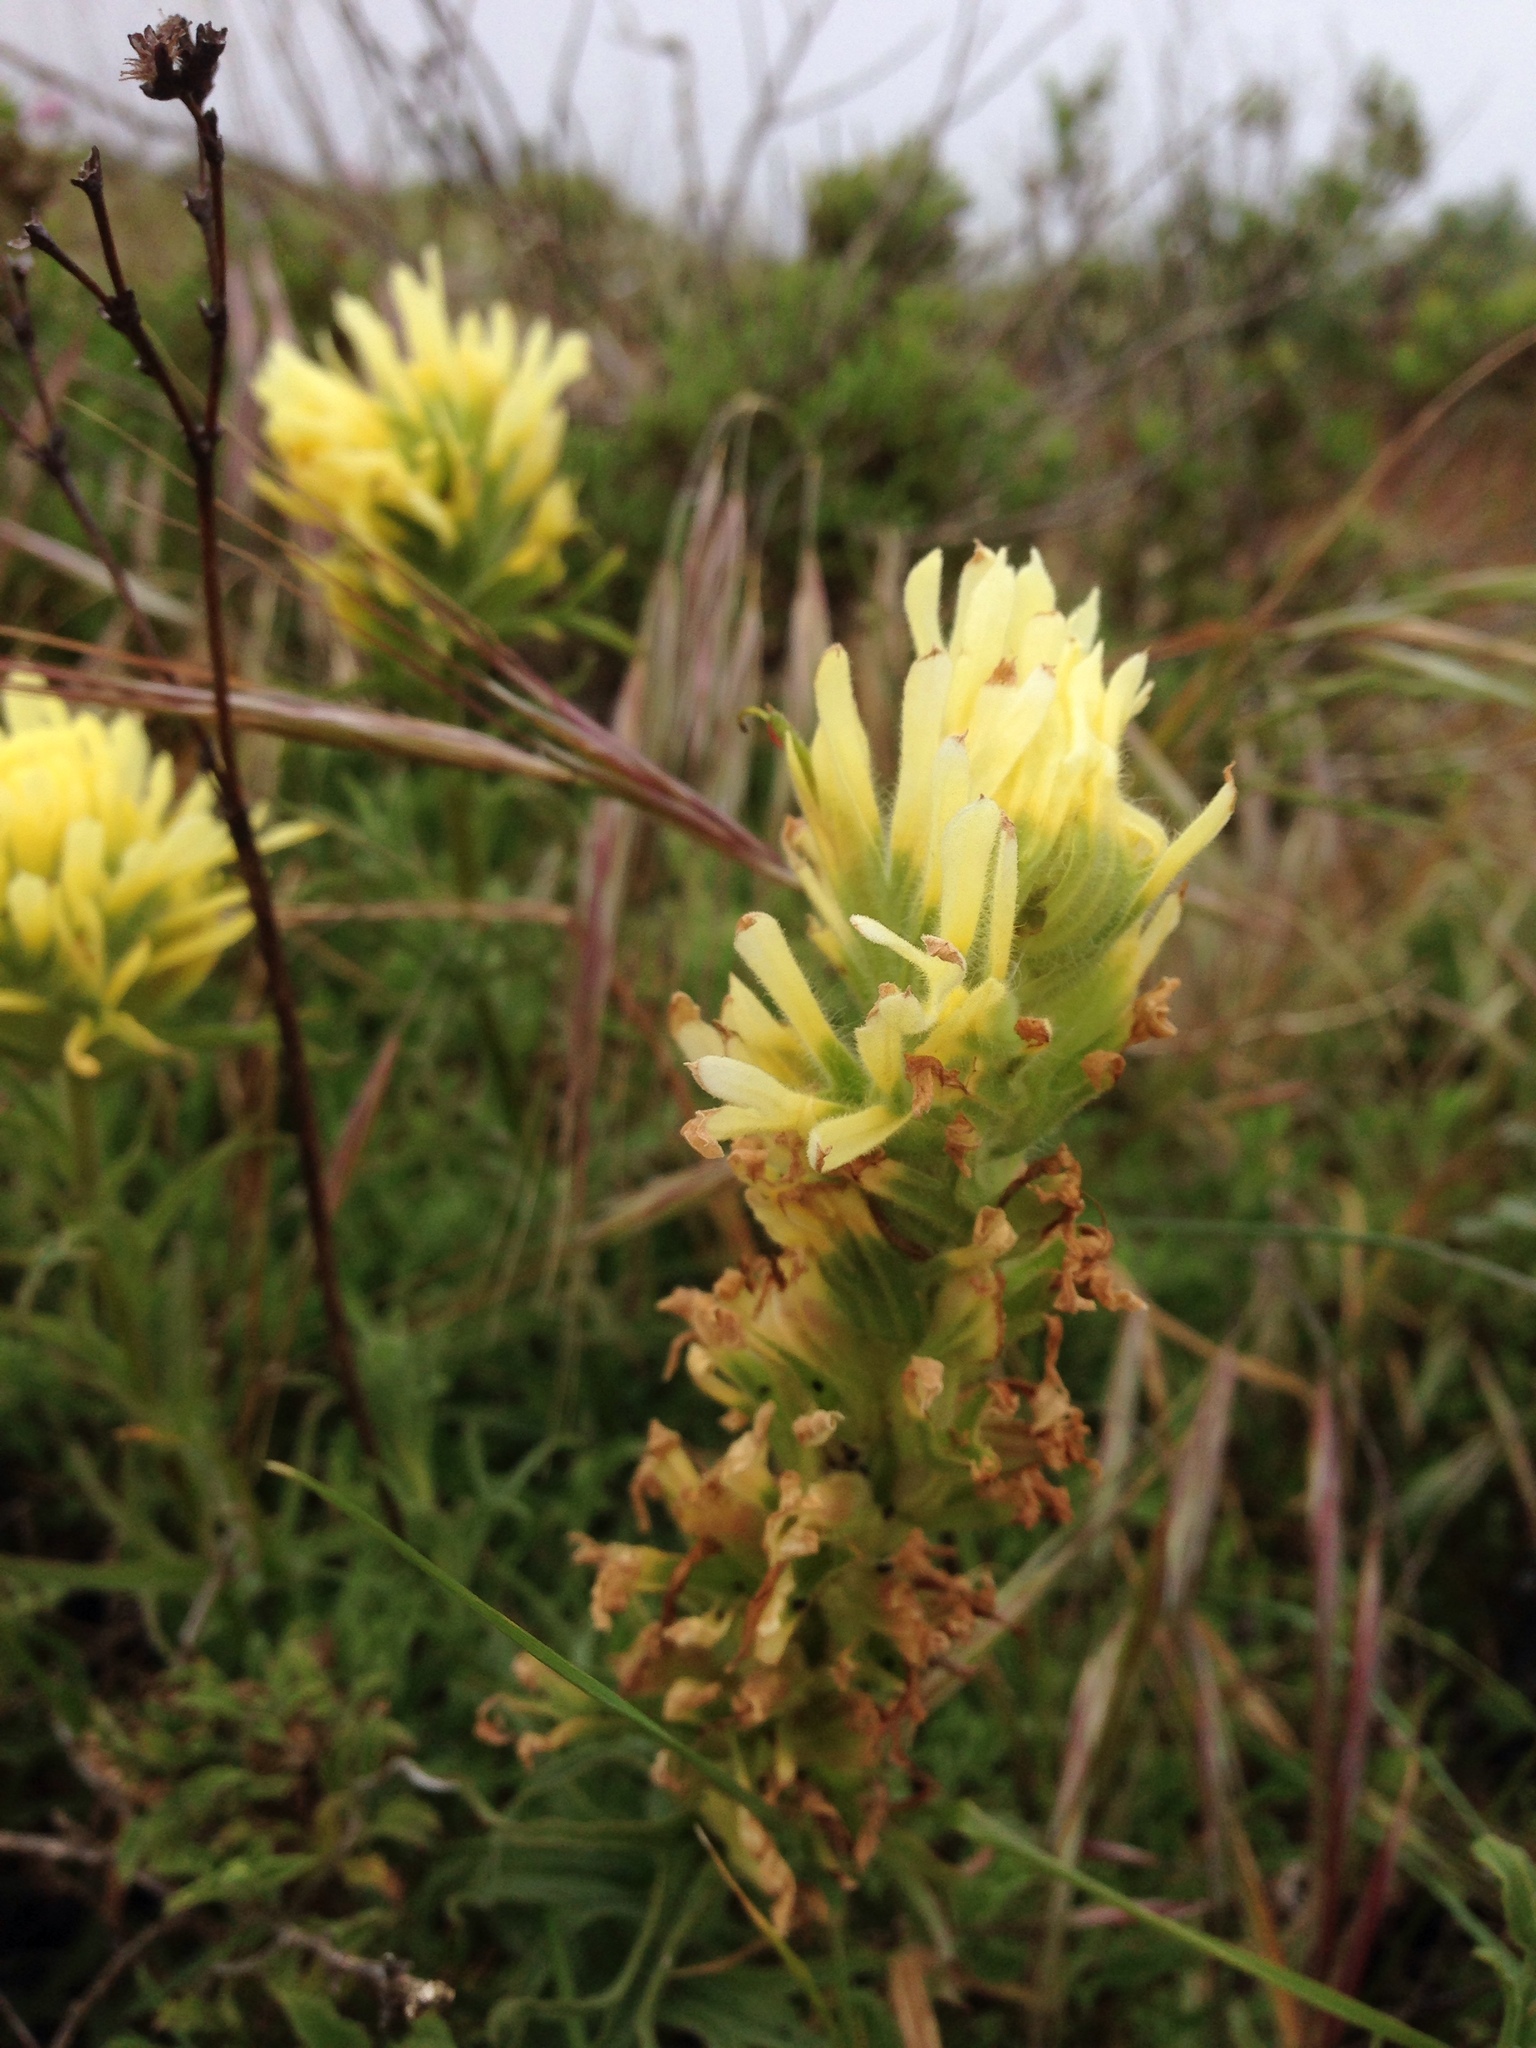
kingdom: Plantae
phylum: Tracheophyta
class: Magnoliopsida
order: Lamiales
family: Orobanchaceae
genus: Castilleja
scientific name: Castilleja affinis
